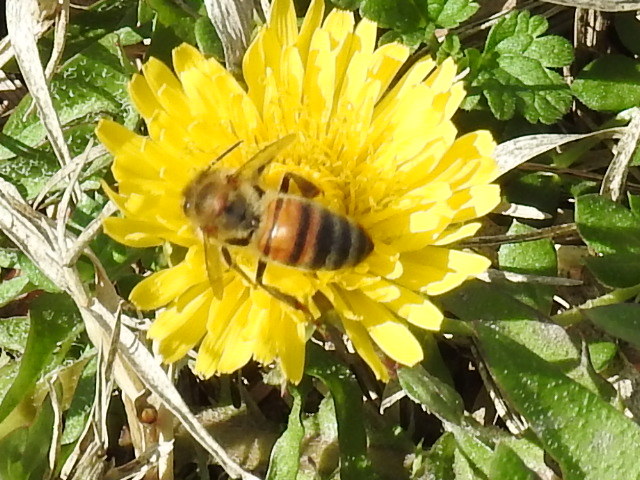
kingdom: Animalia
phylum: Arthropoda
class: Insecta
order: Hymenoptera
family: Apidae
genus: Apis
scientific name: Apis mellifera
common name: Honey bee
